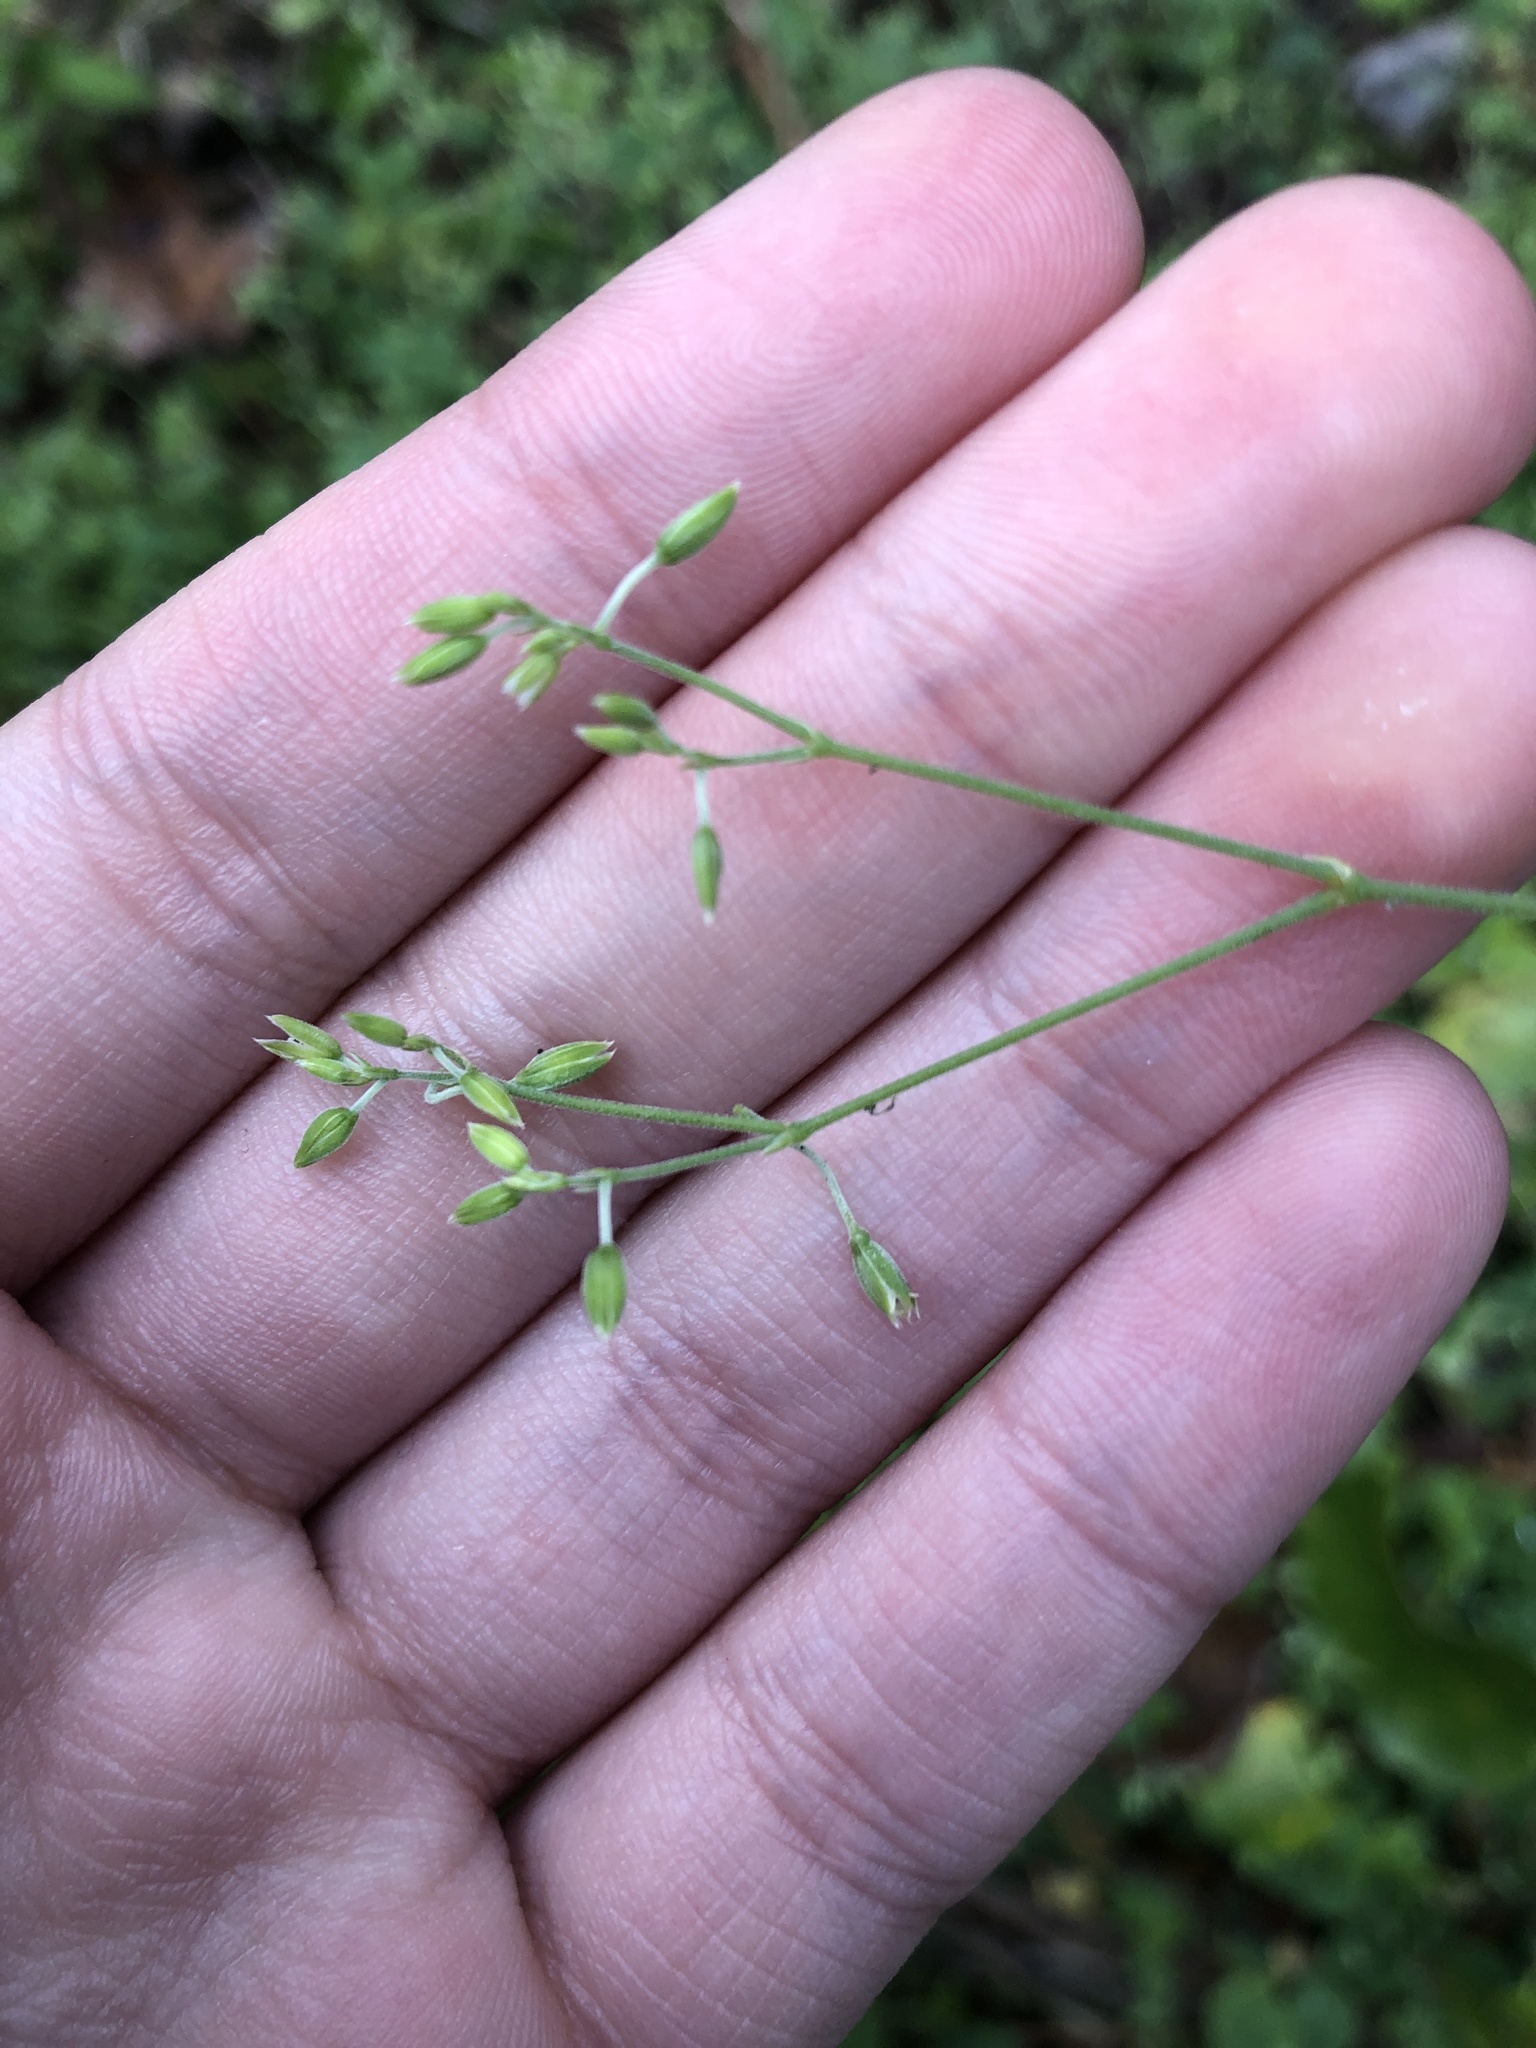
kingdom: Plantae
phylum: Tracheophyta
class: Magnoliopsida
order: Caryophyllales
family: Caryophyllaceae
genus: Drymaria
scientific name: Drymaria cordata
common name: Whitesnow
